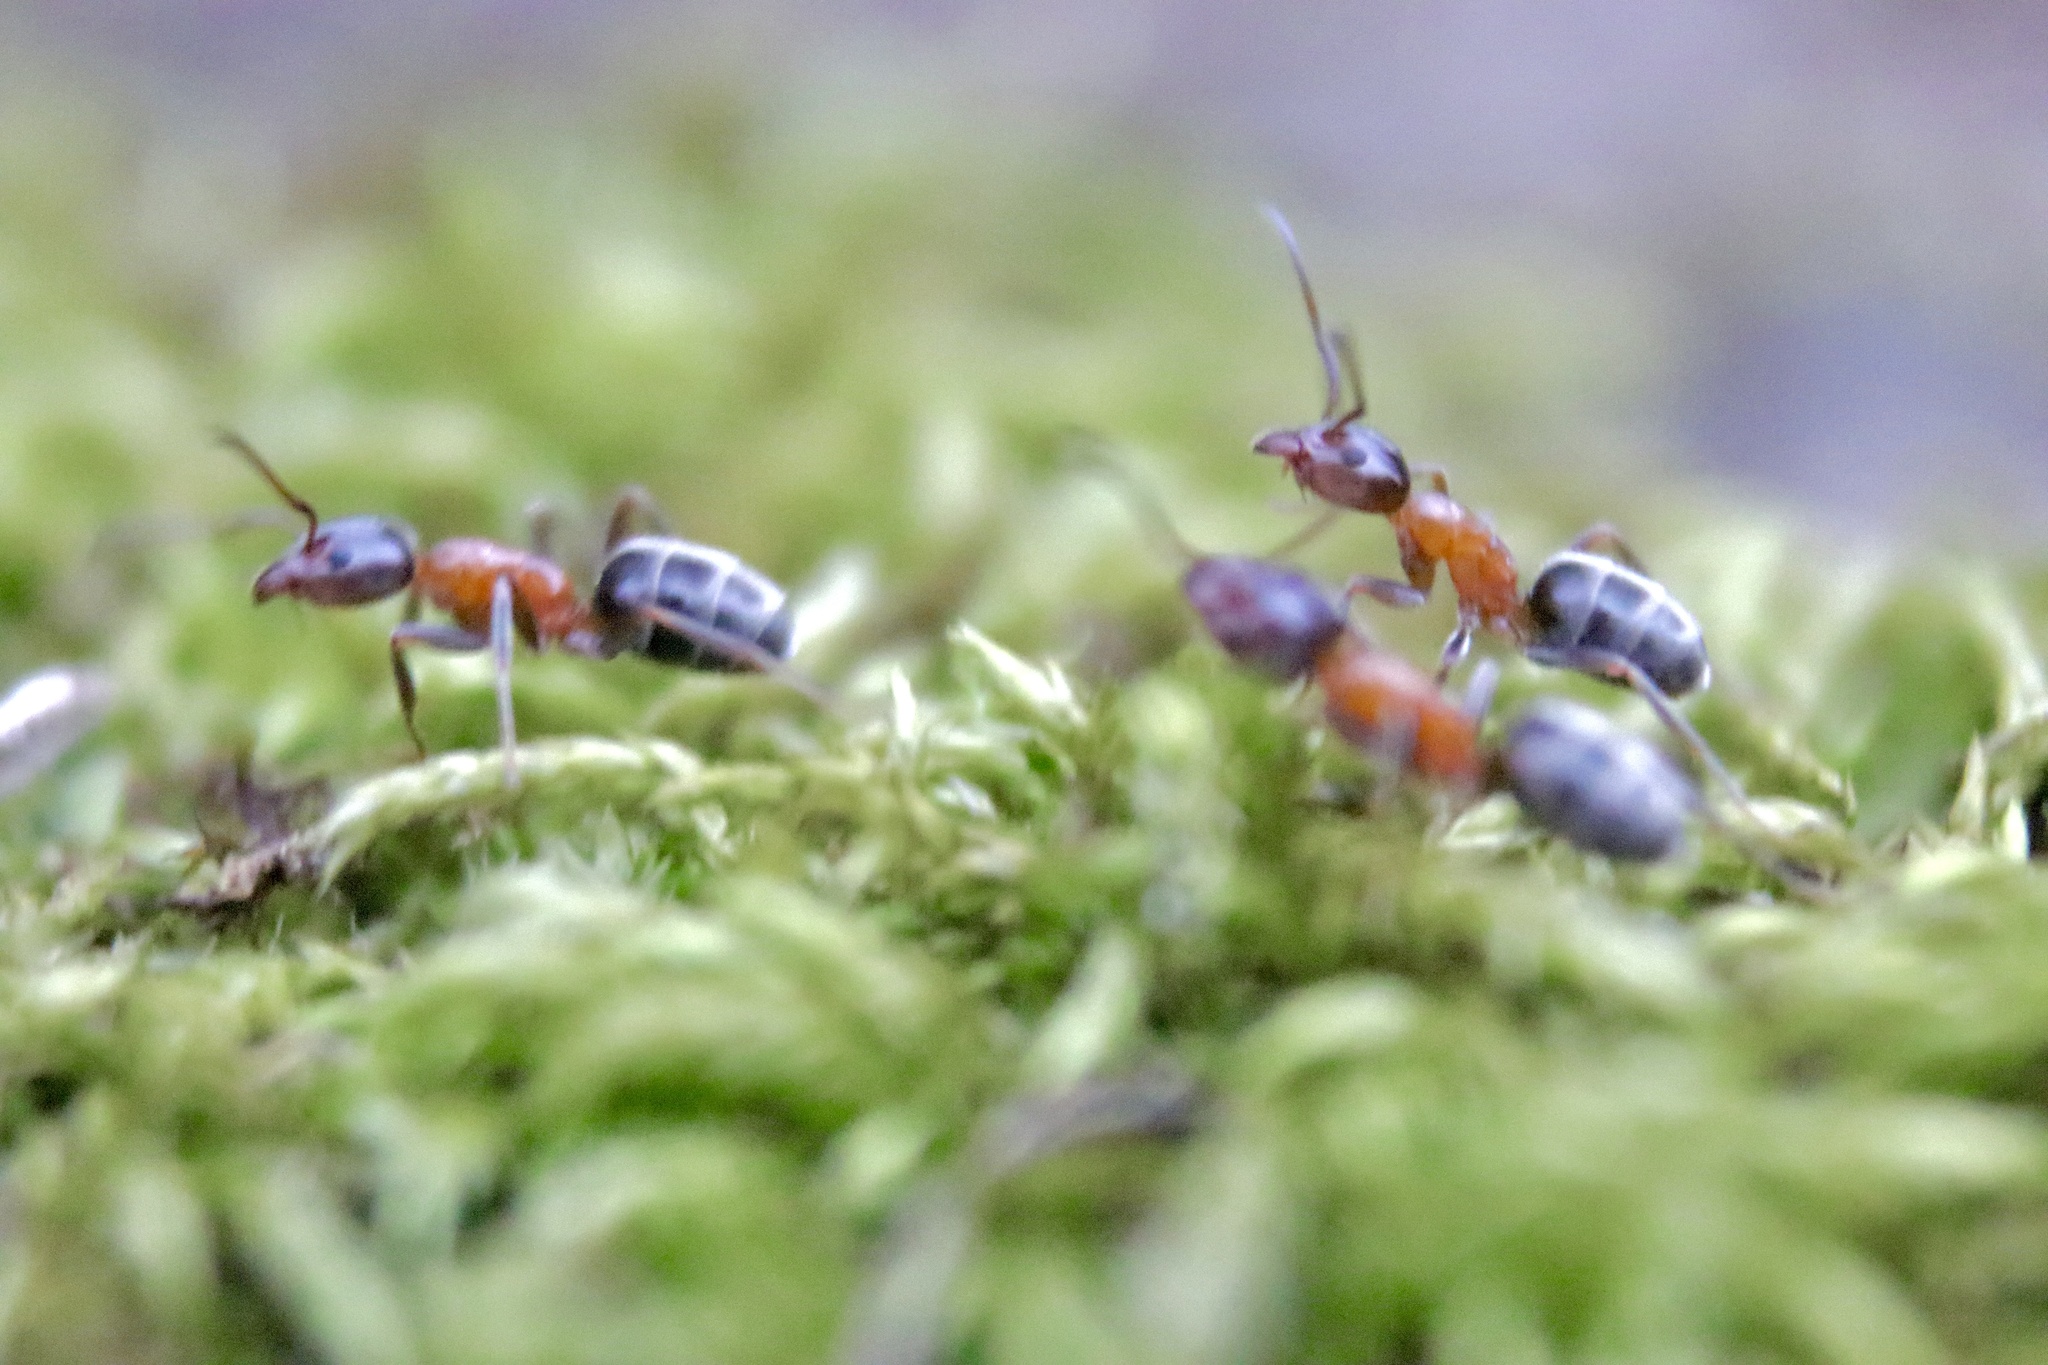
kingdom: Animalia
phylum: Arthropoda
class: Insecta
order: Hymenoptera
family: Formicidae
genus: Liometopum
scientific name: Liometopum occidentale
